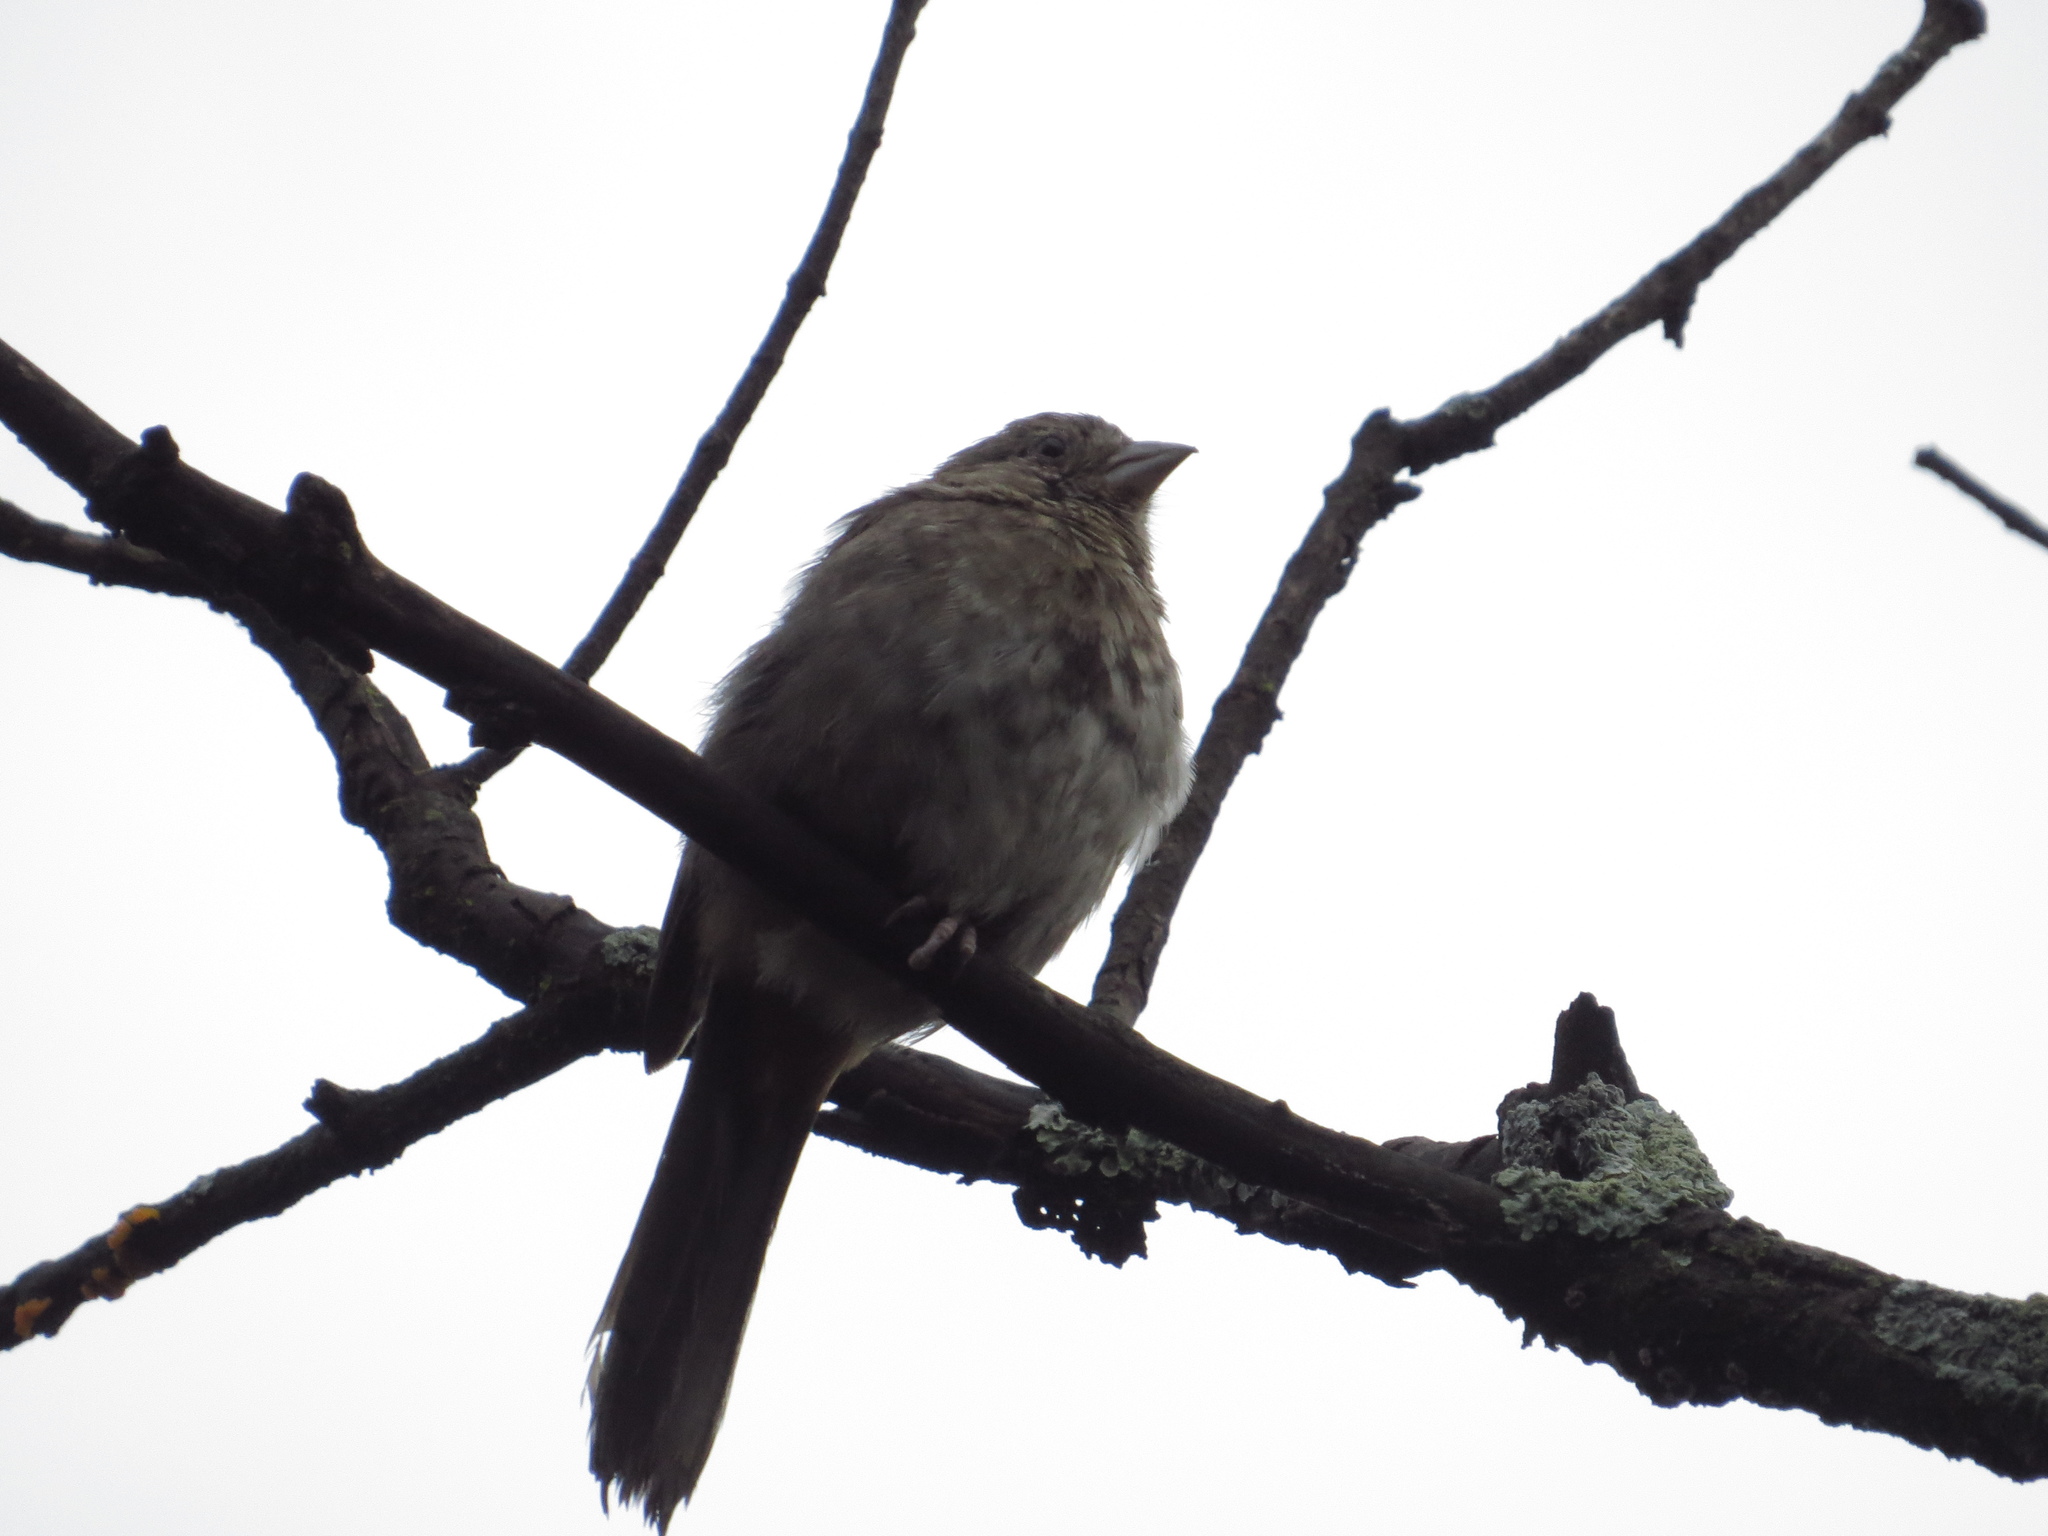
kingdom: Animalia
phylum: Chordata
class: Aves
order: Passeriformes
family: Passerellidae
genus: Melozone
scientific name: Melozone fusca
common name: Canyon towhee
